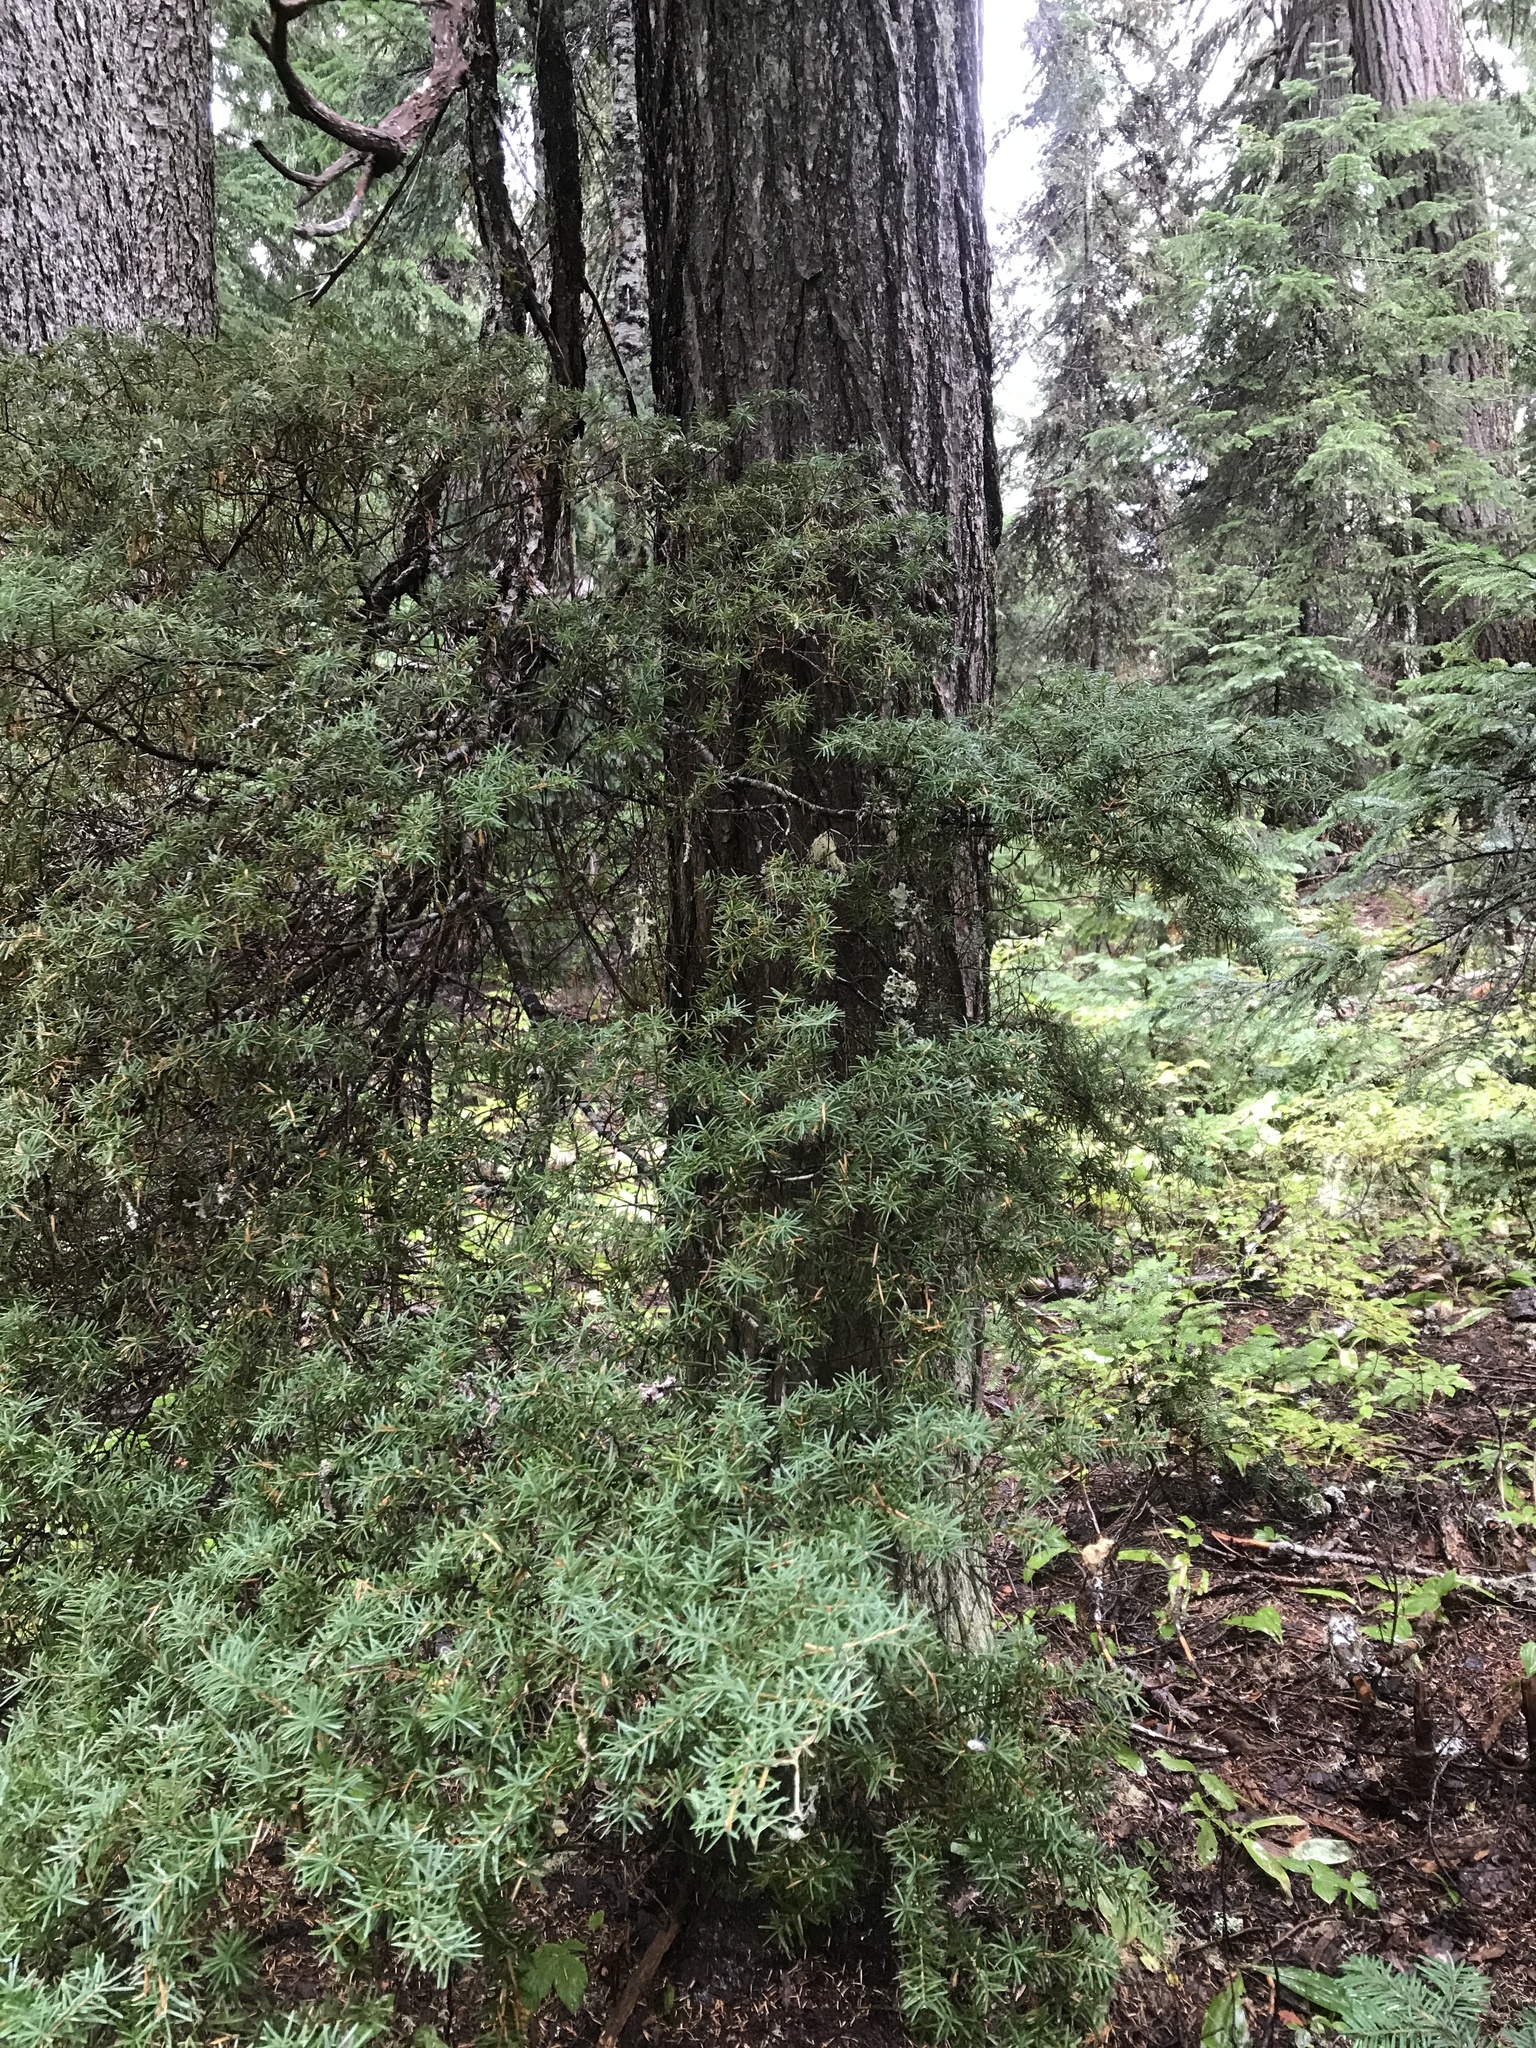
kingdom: Plantae
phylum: Tracheophyta
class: Pinopsida
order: Pinales
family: Pinaceae
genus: Tsuga
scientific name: Tsuga mertensiana
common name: Mountain hemlock
